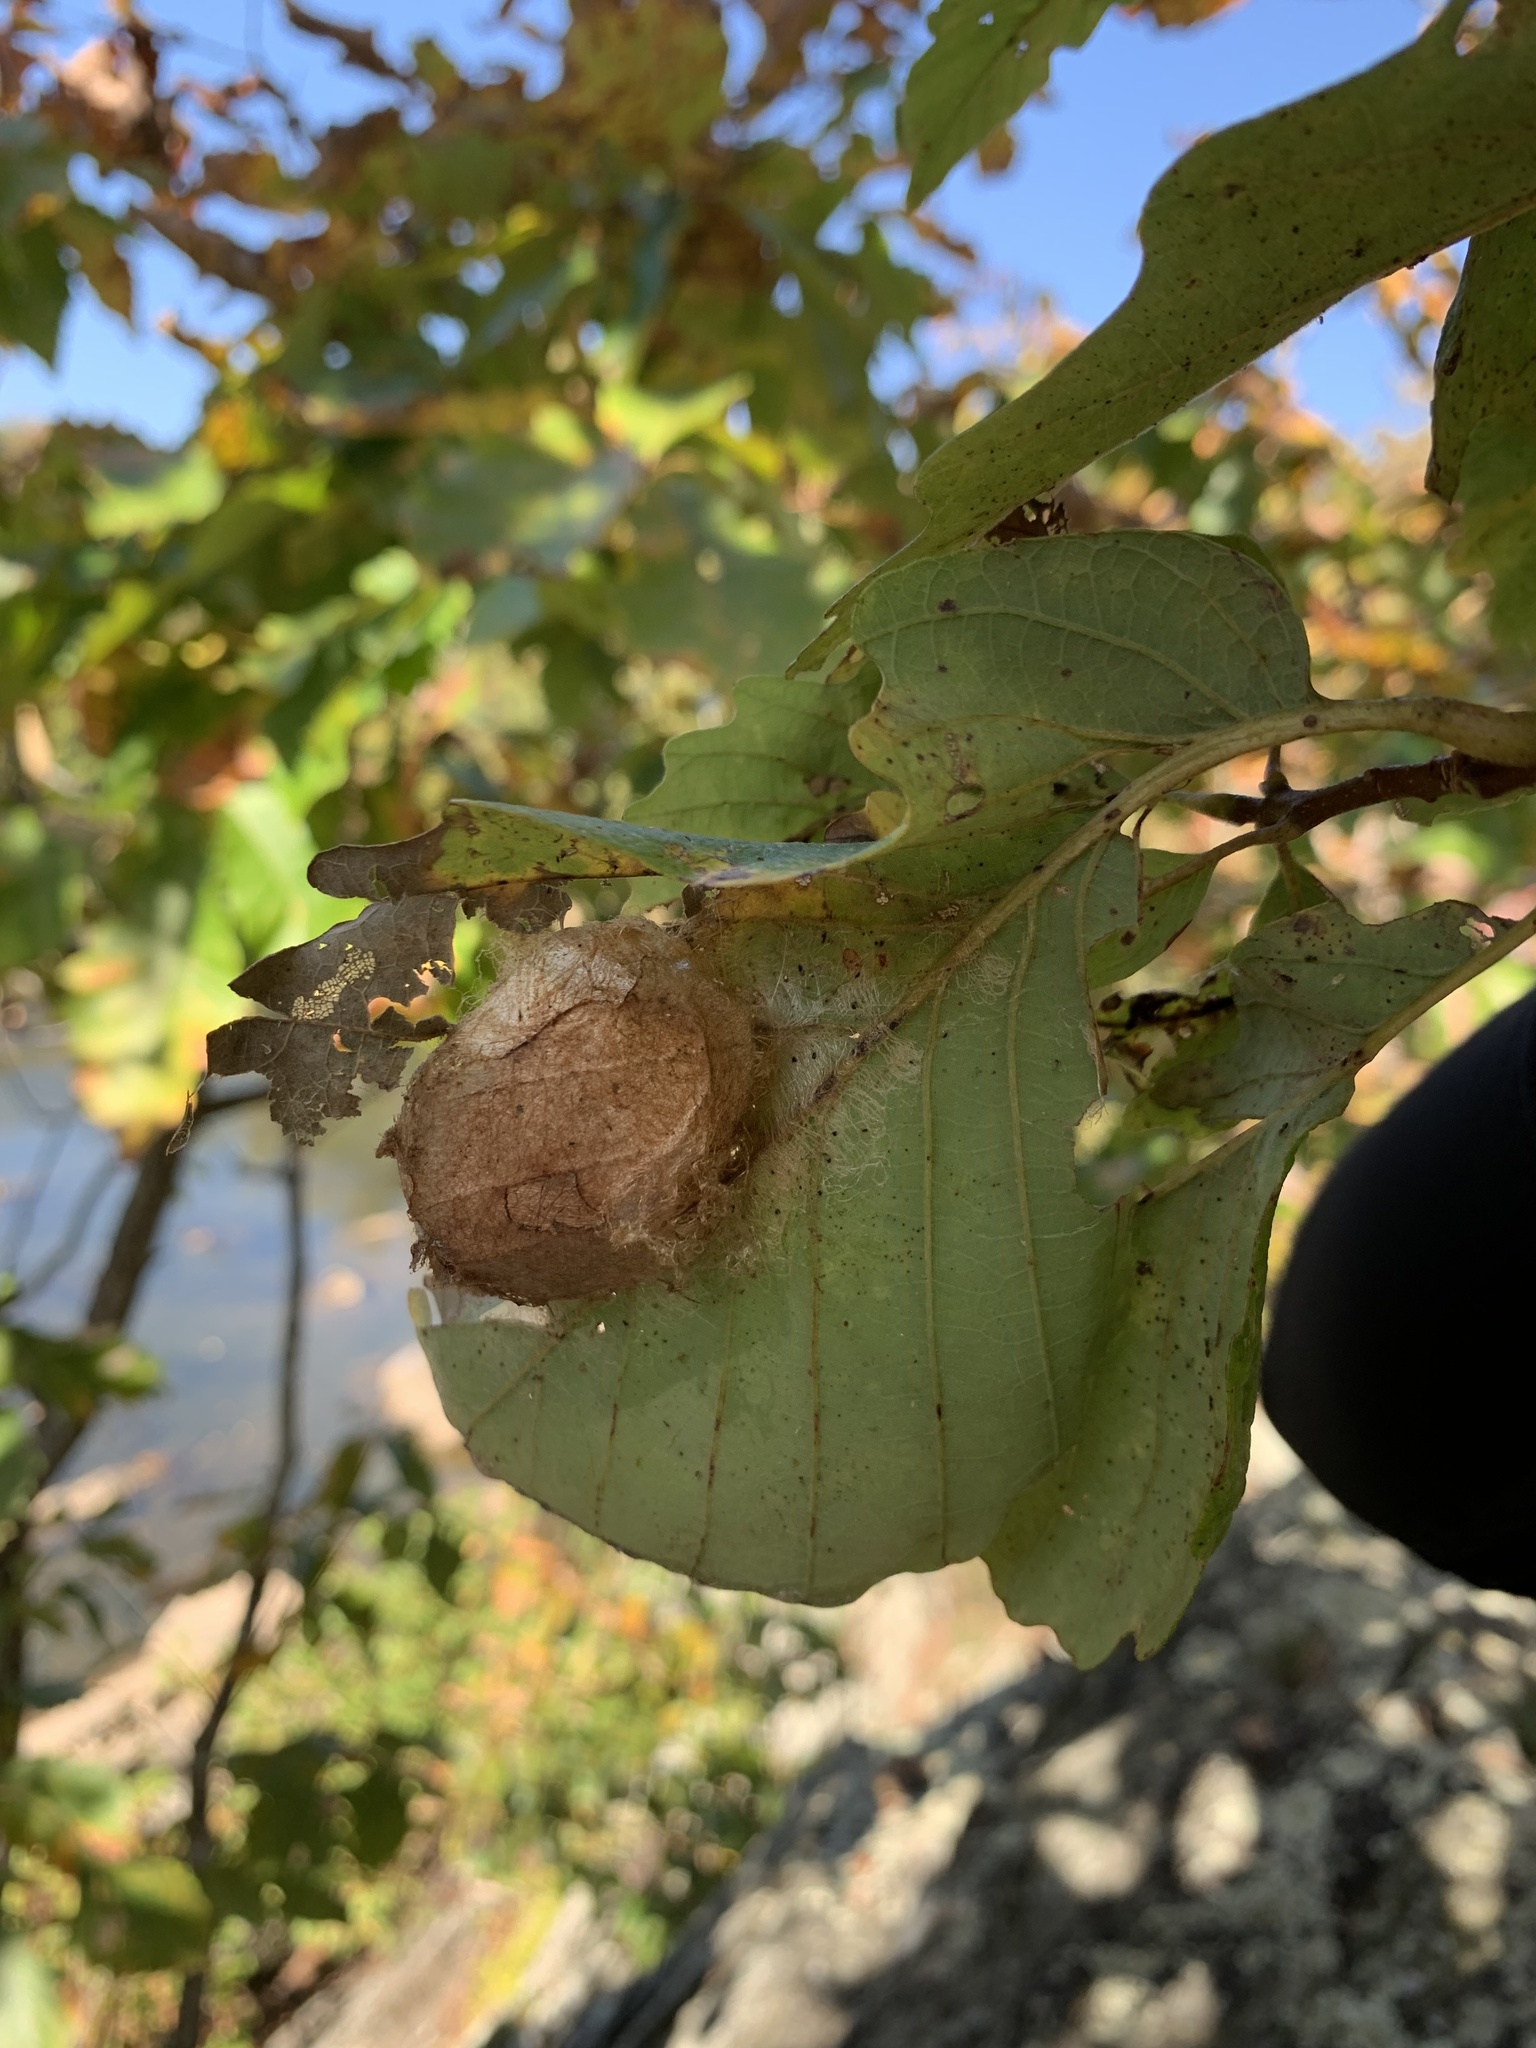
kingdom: Animalia
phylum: Arthropoda
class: Insecta
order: Lepidoptera
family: Saturniidae
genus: Antheraea
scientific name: Antheraea polyphemus
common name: Polyphemus moth
